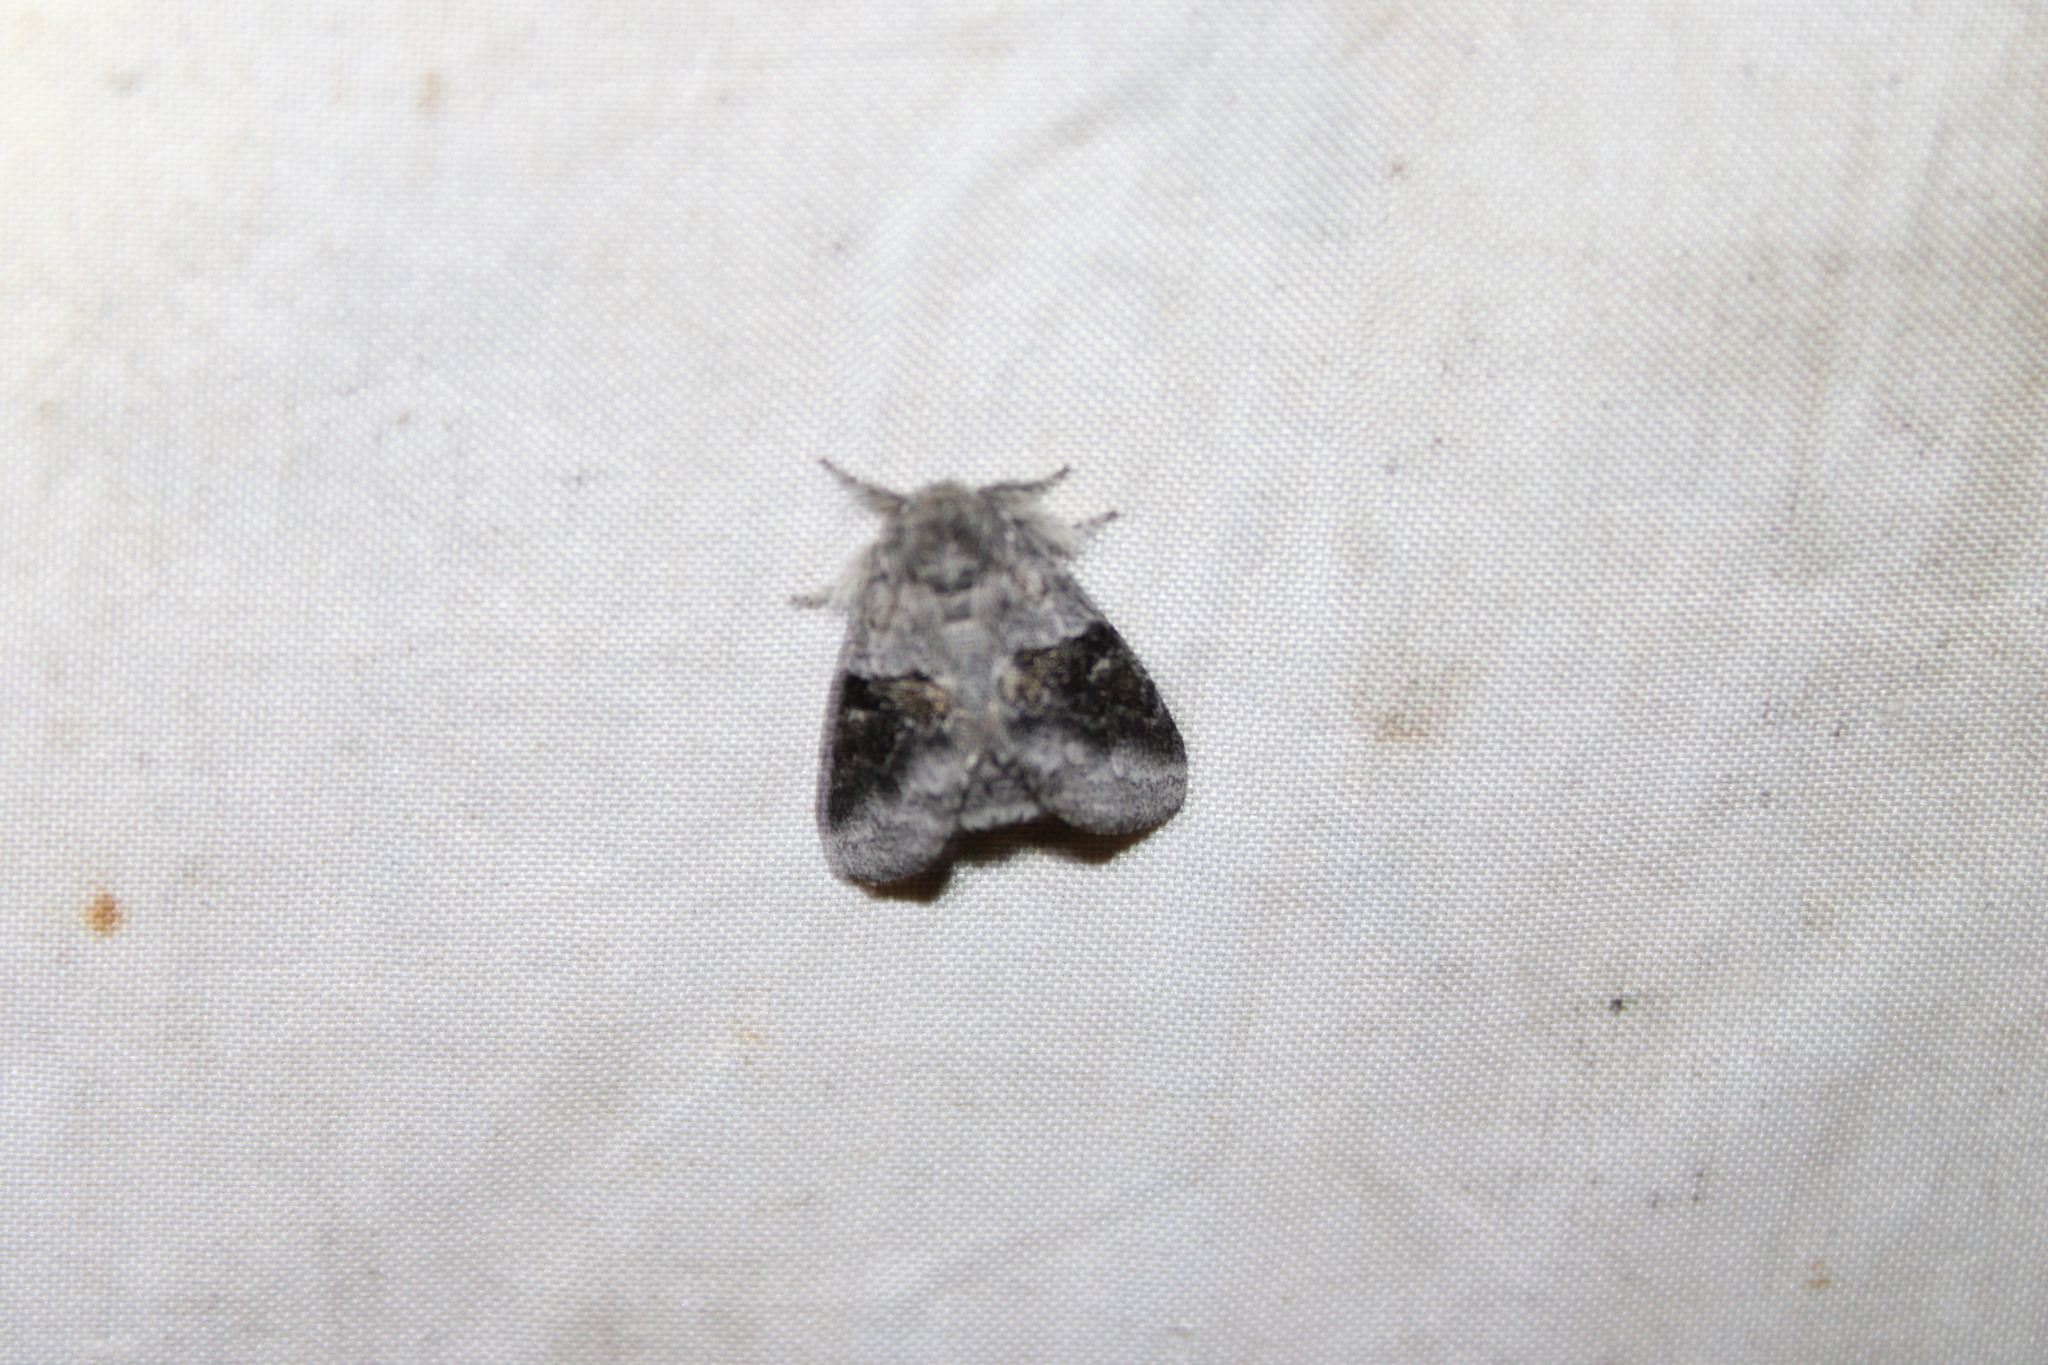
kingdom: Animalia
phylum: Arthropoda
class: Insecta
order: Lepidoptera
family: Notodontidae
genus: Gluphisia
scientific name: Gluphisia septentrionis
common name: Common gluphisia
